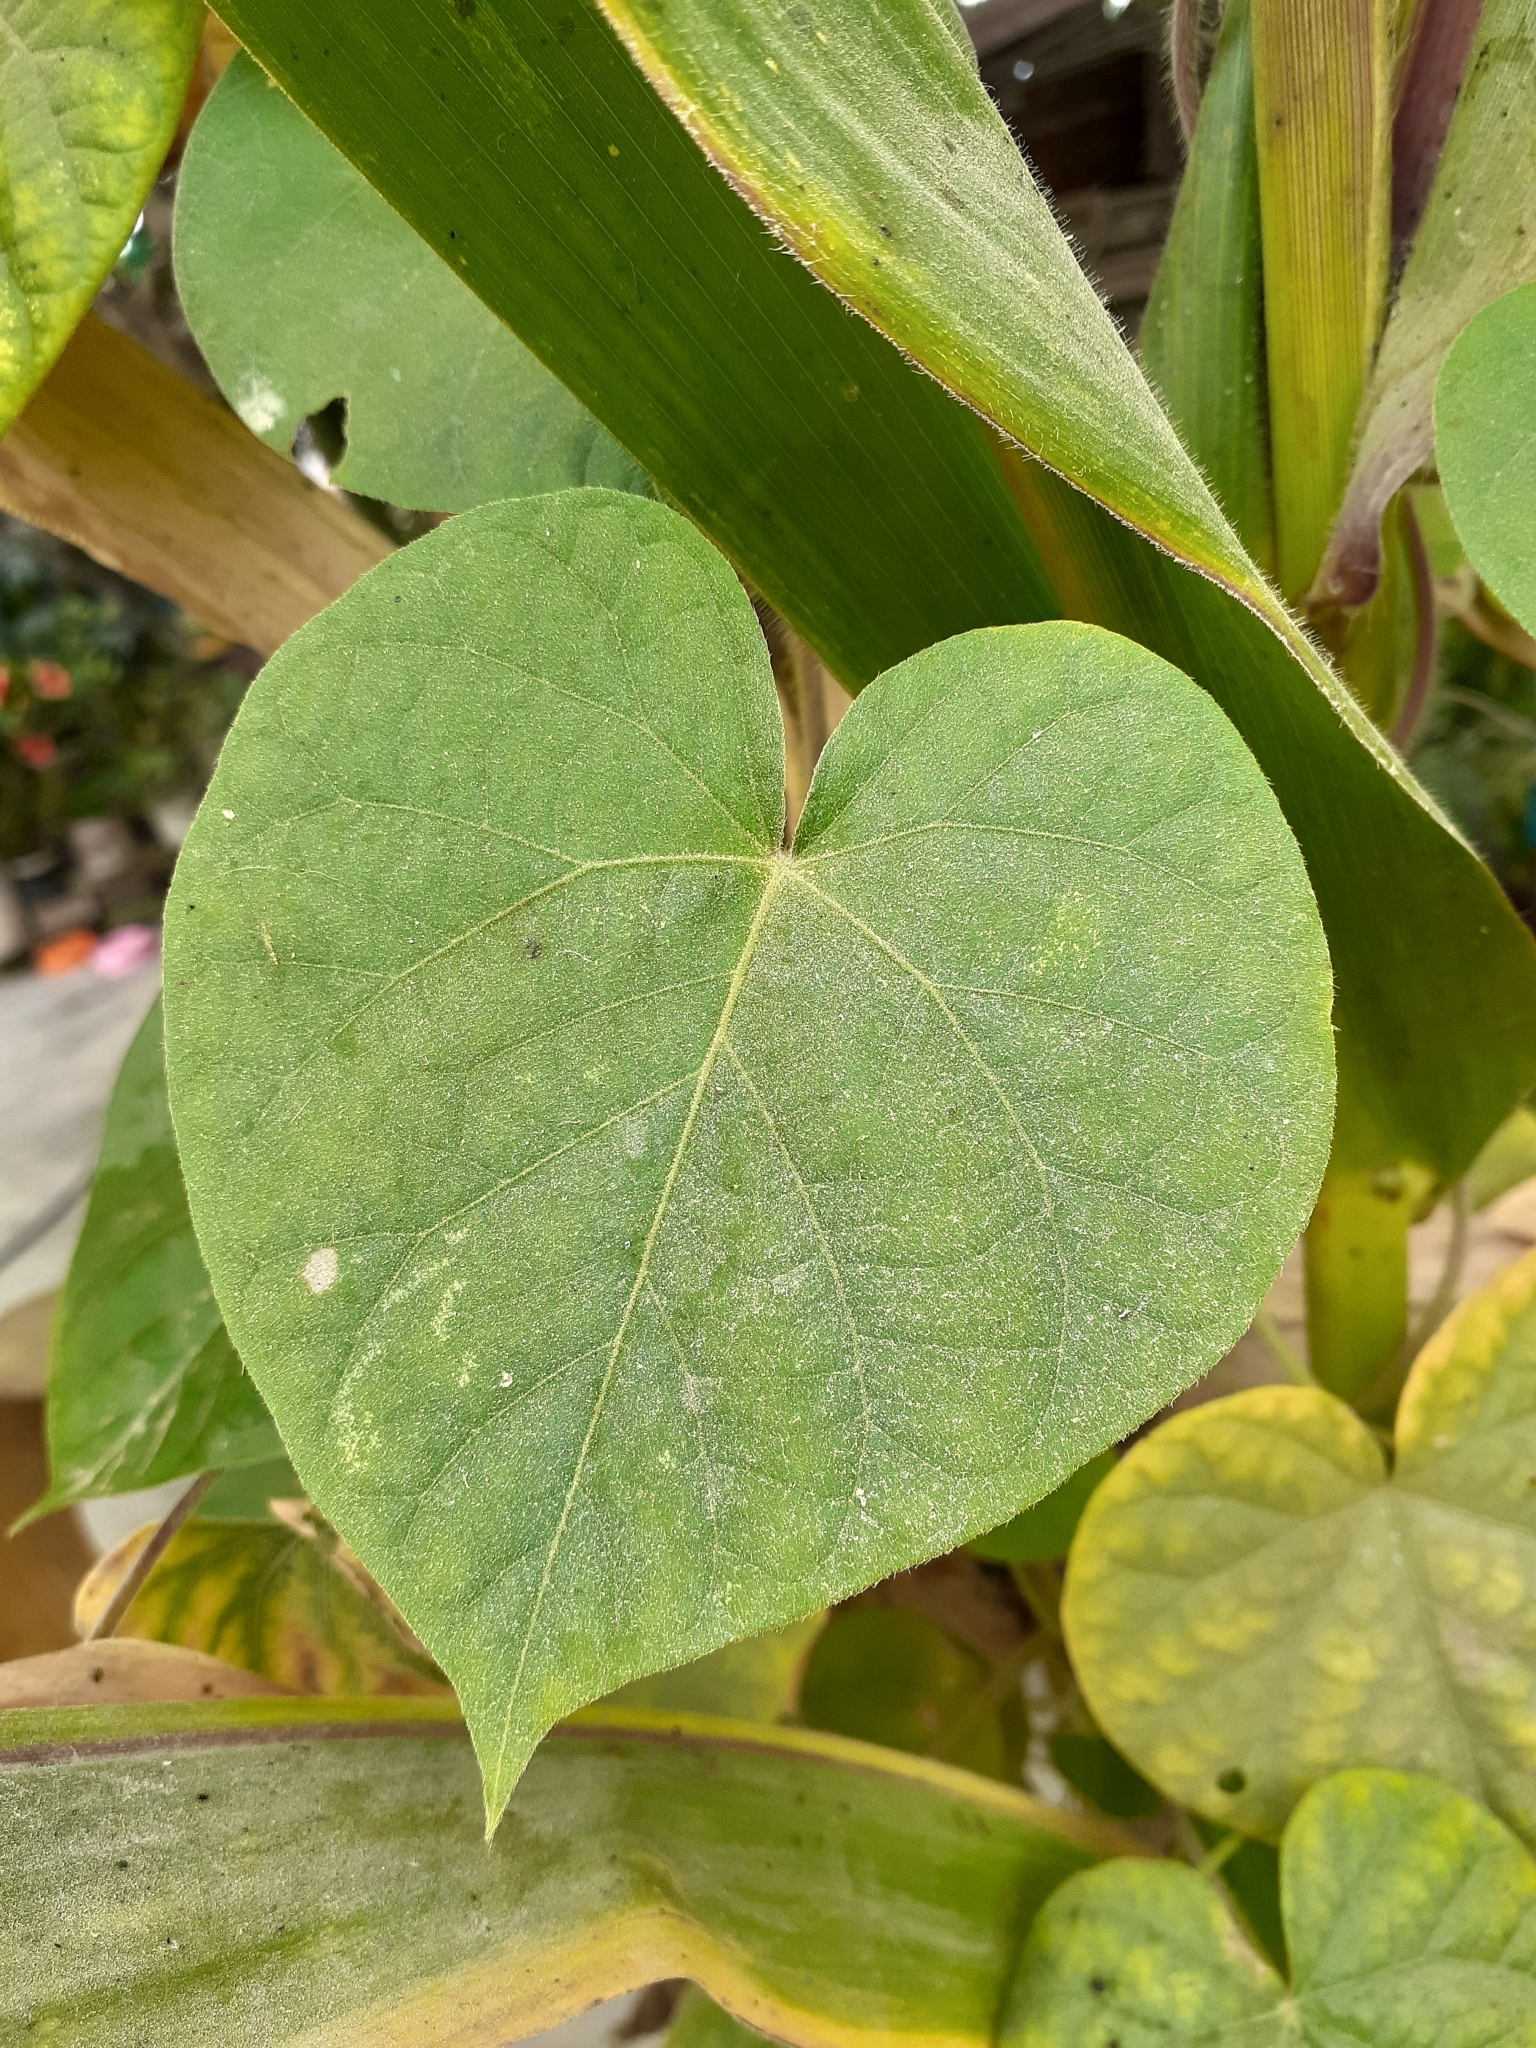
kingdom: Plantae
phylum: Tracheophyta
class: Magnoliopsida
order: Solanales
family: Convolvulaceae
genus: Ipomoea
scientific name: Ipomoea purpurea
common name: Common morning-glory
